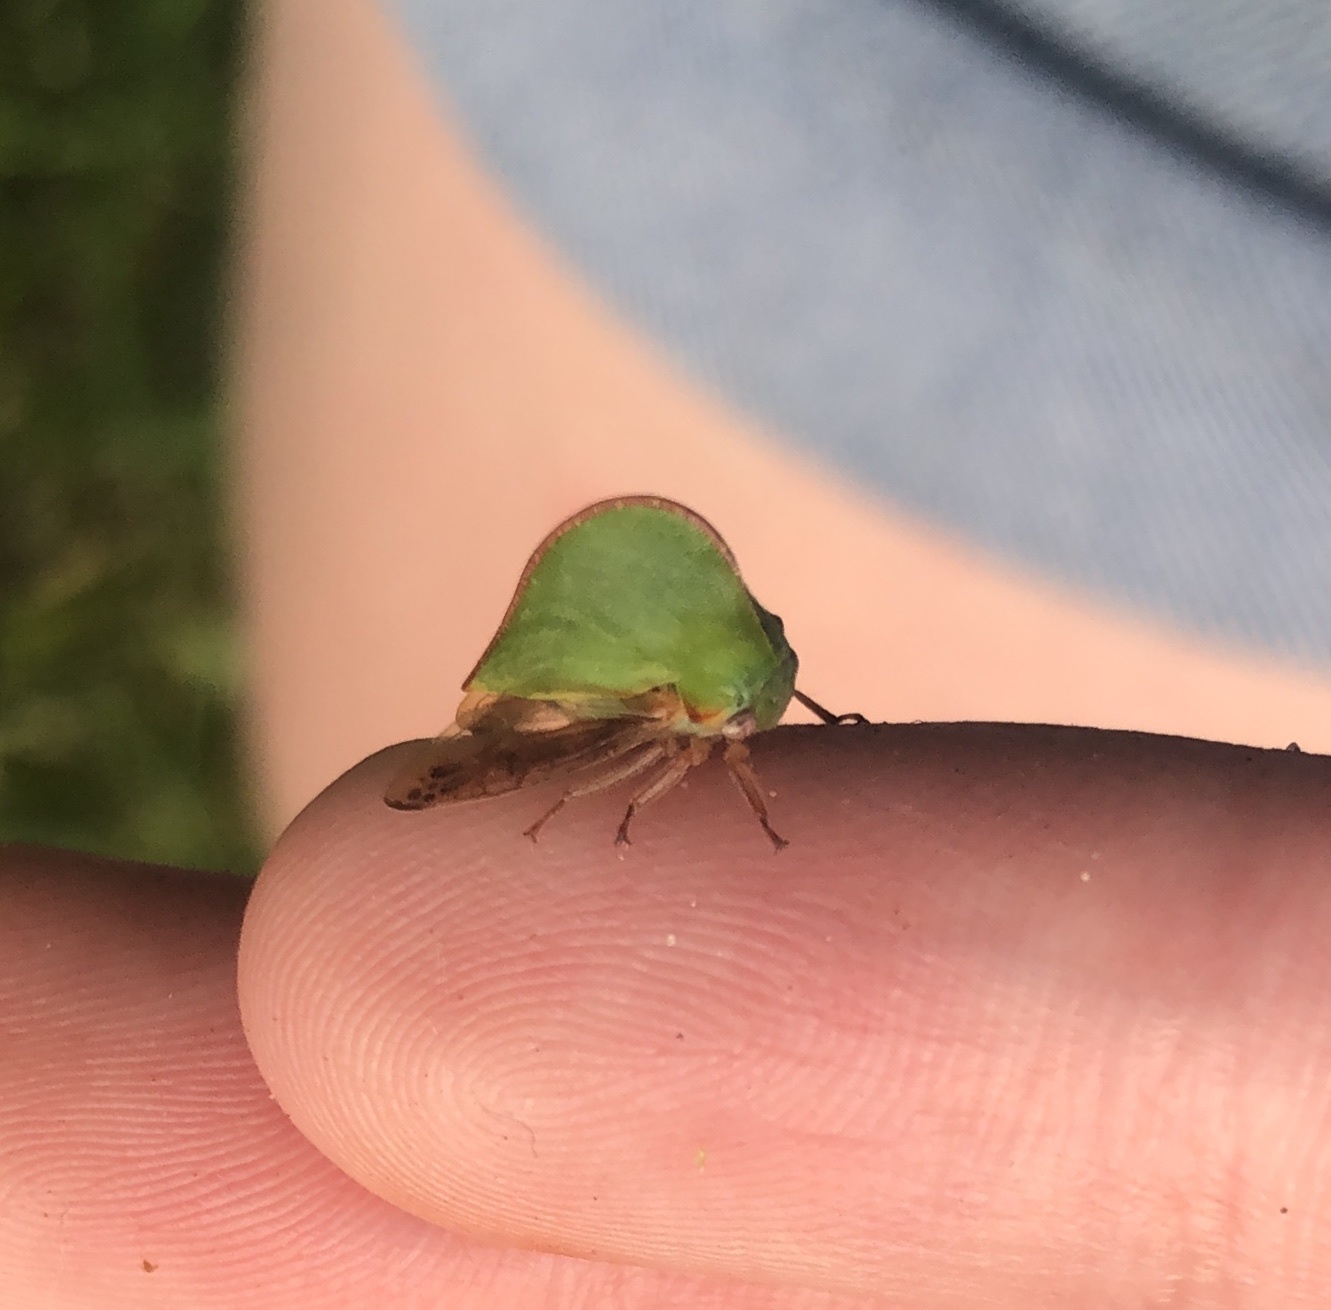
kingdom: Animalia
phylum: Arthropoda
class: Insecta
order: Hemiptera
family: Membracidae
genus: Archasia
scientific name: Archasia belfragei
